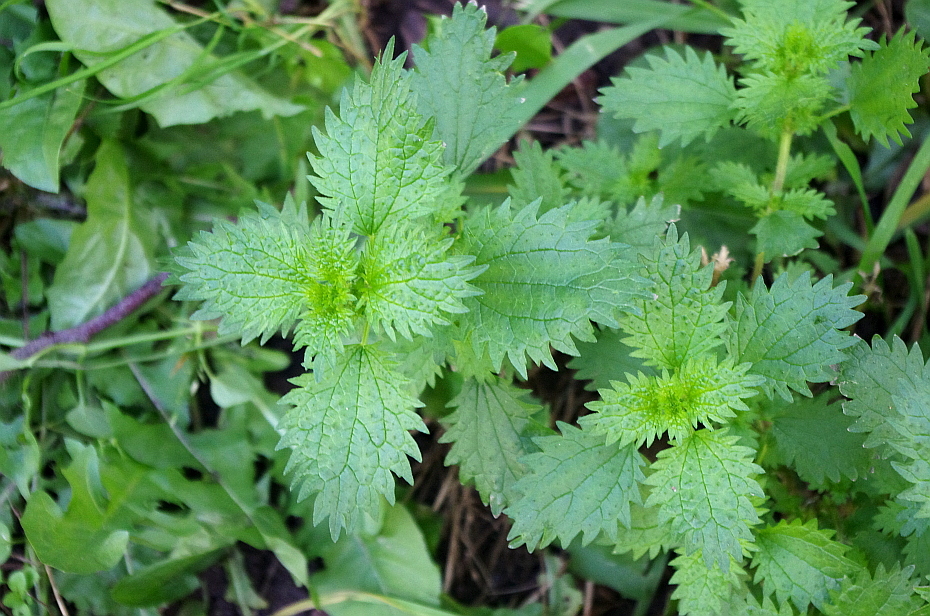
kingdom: Plantae
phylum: Tracheophyta
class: Magnoliopsida
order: Rosales
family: Urticaceae
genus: Urtica
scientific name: Urtica urens
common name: Dwarf nettle
